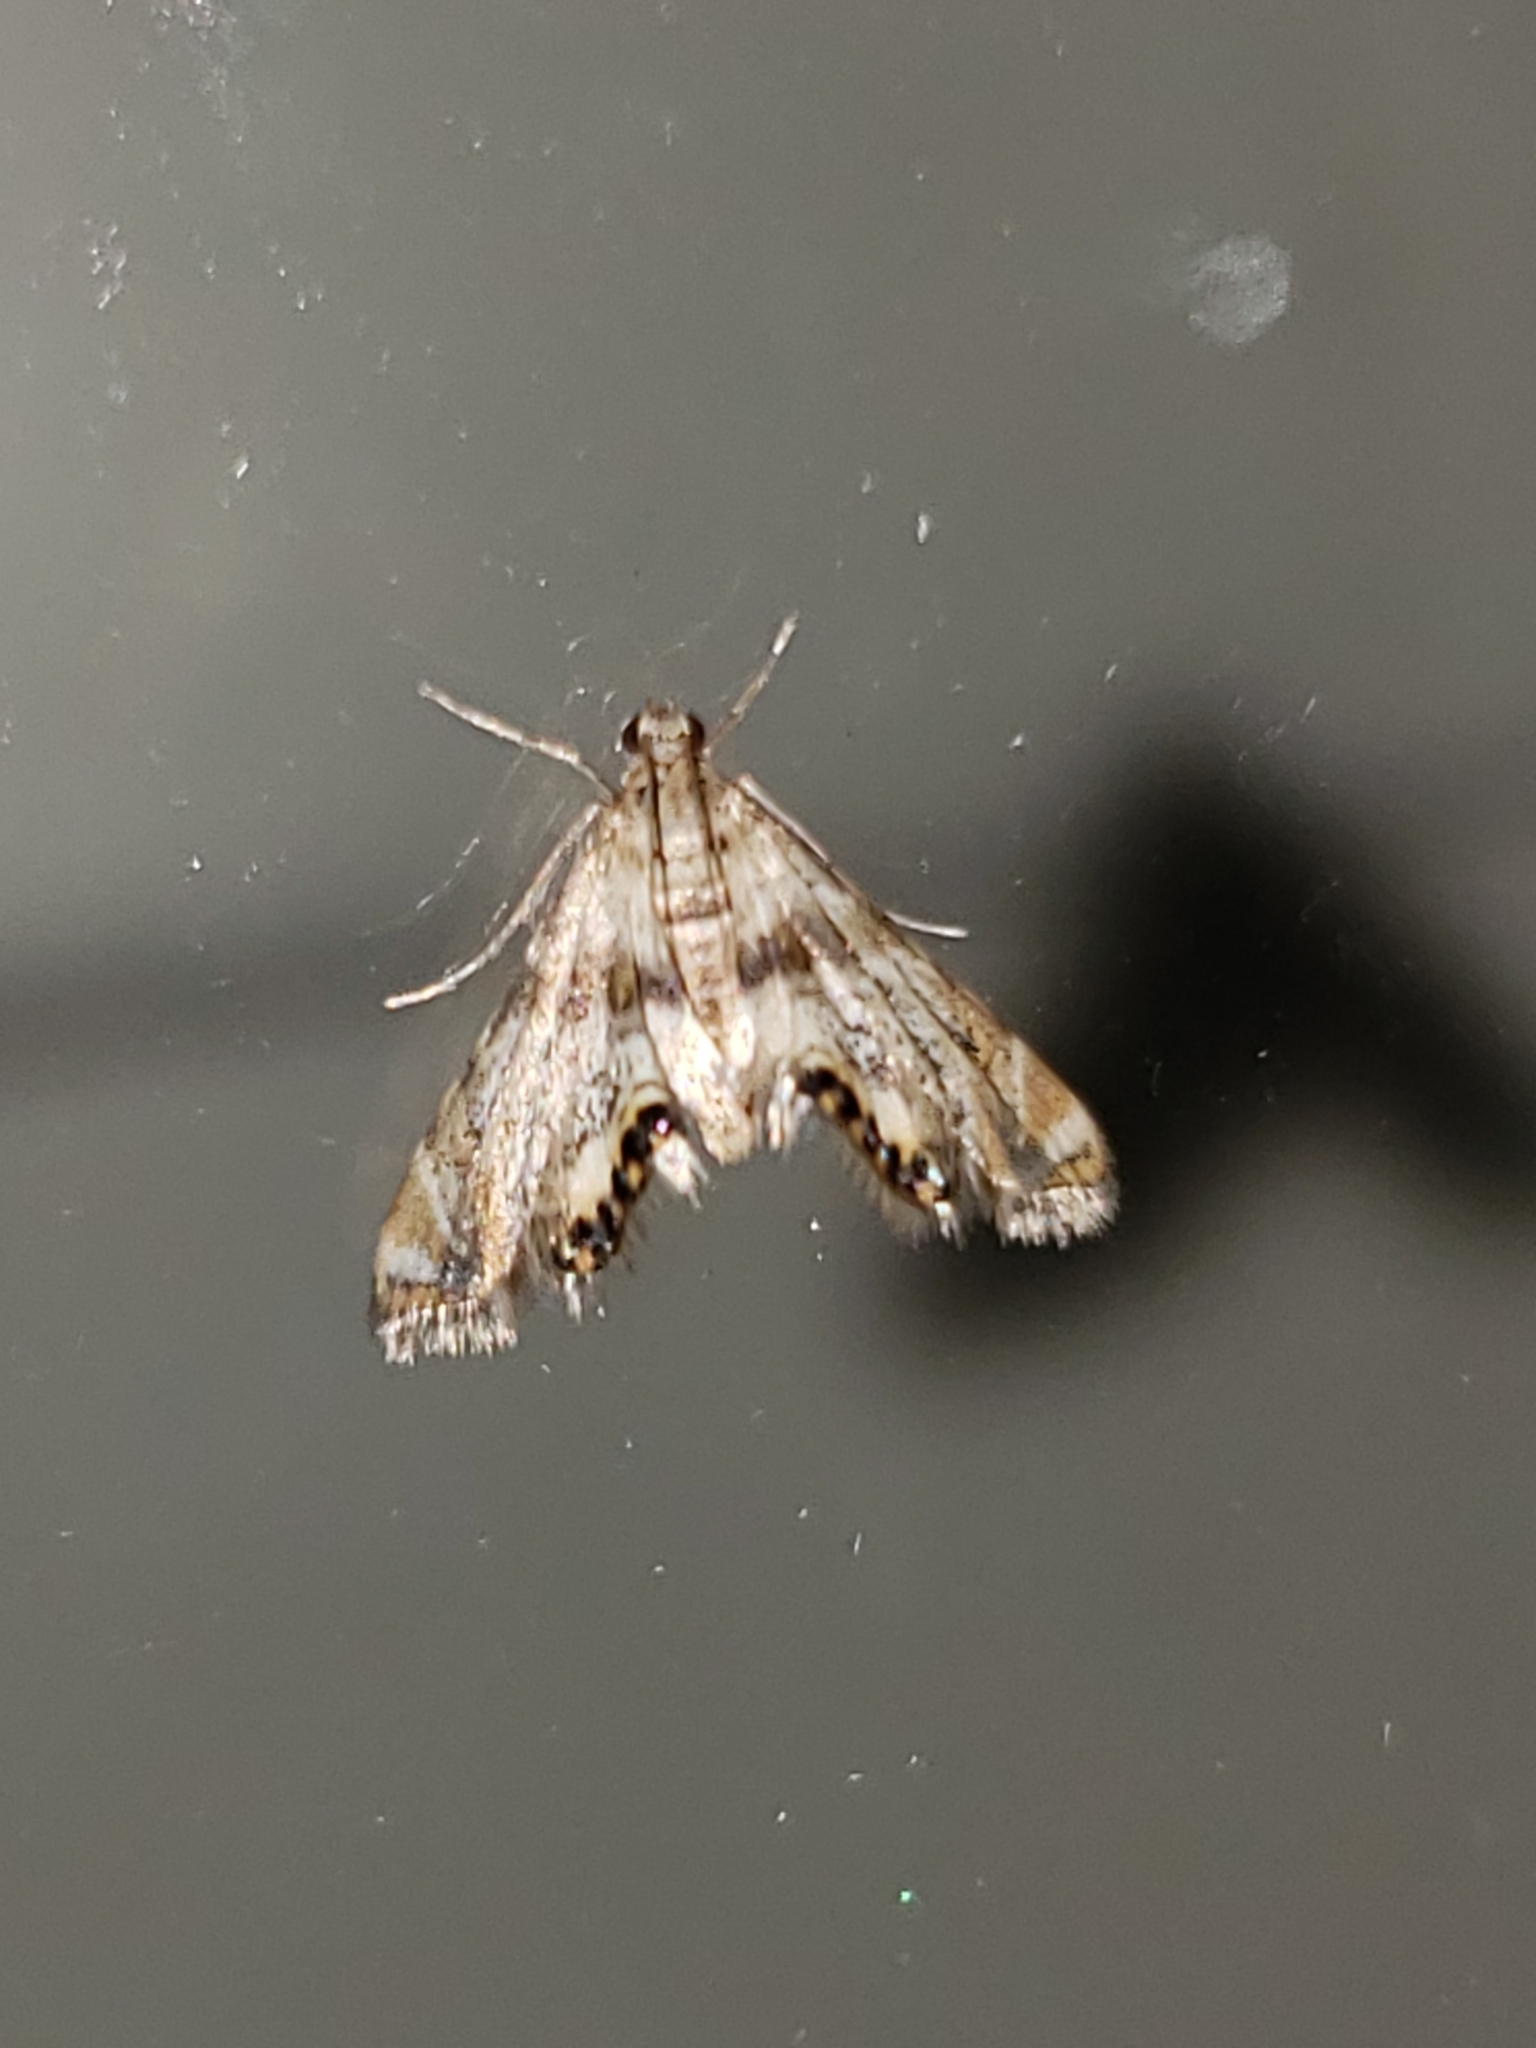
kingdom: Animalia
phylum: Arthropoda
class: Insecta
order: Lepidoptera
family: Crambidae
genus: Petrophila
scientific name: Petrophila fulicalis
